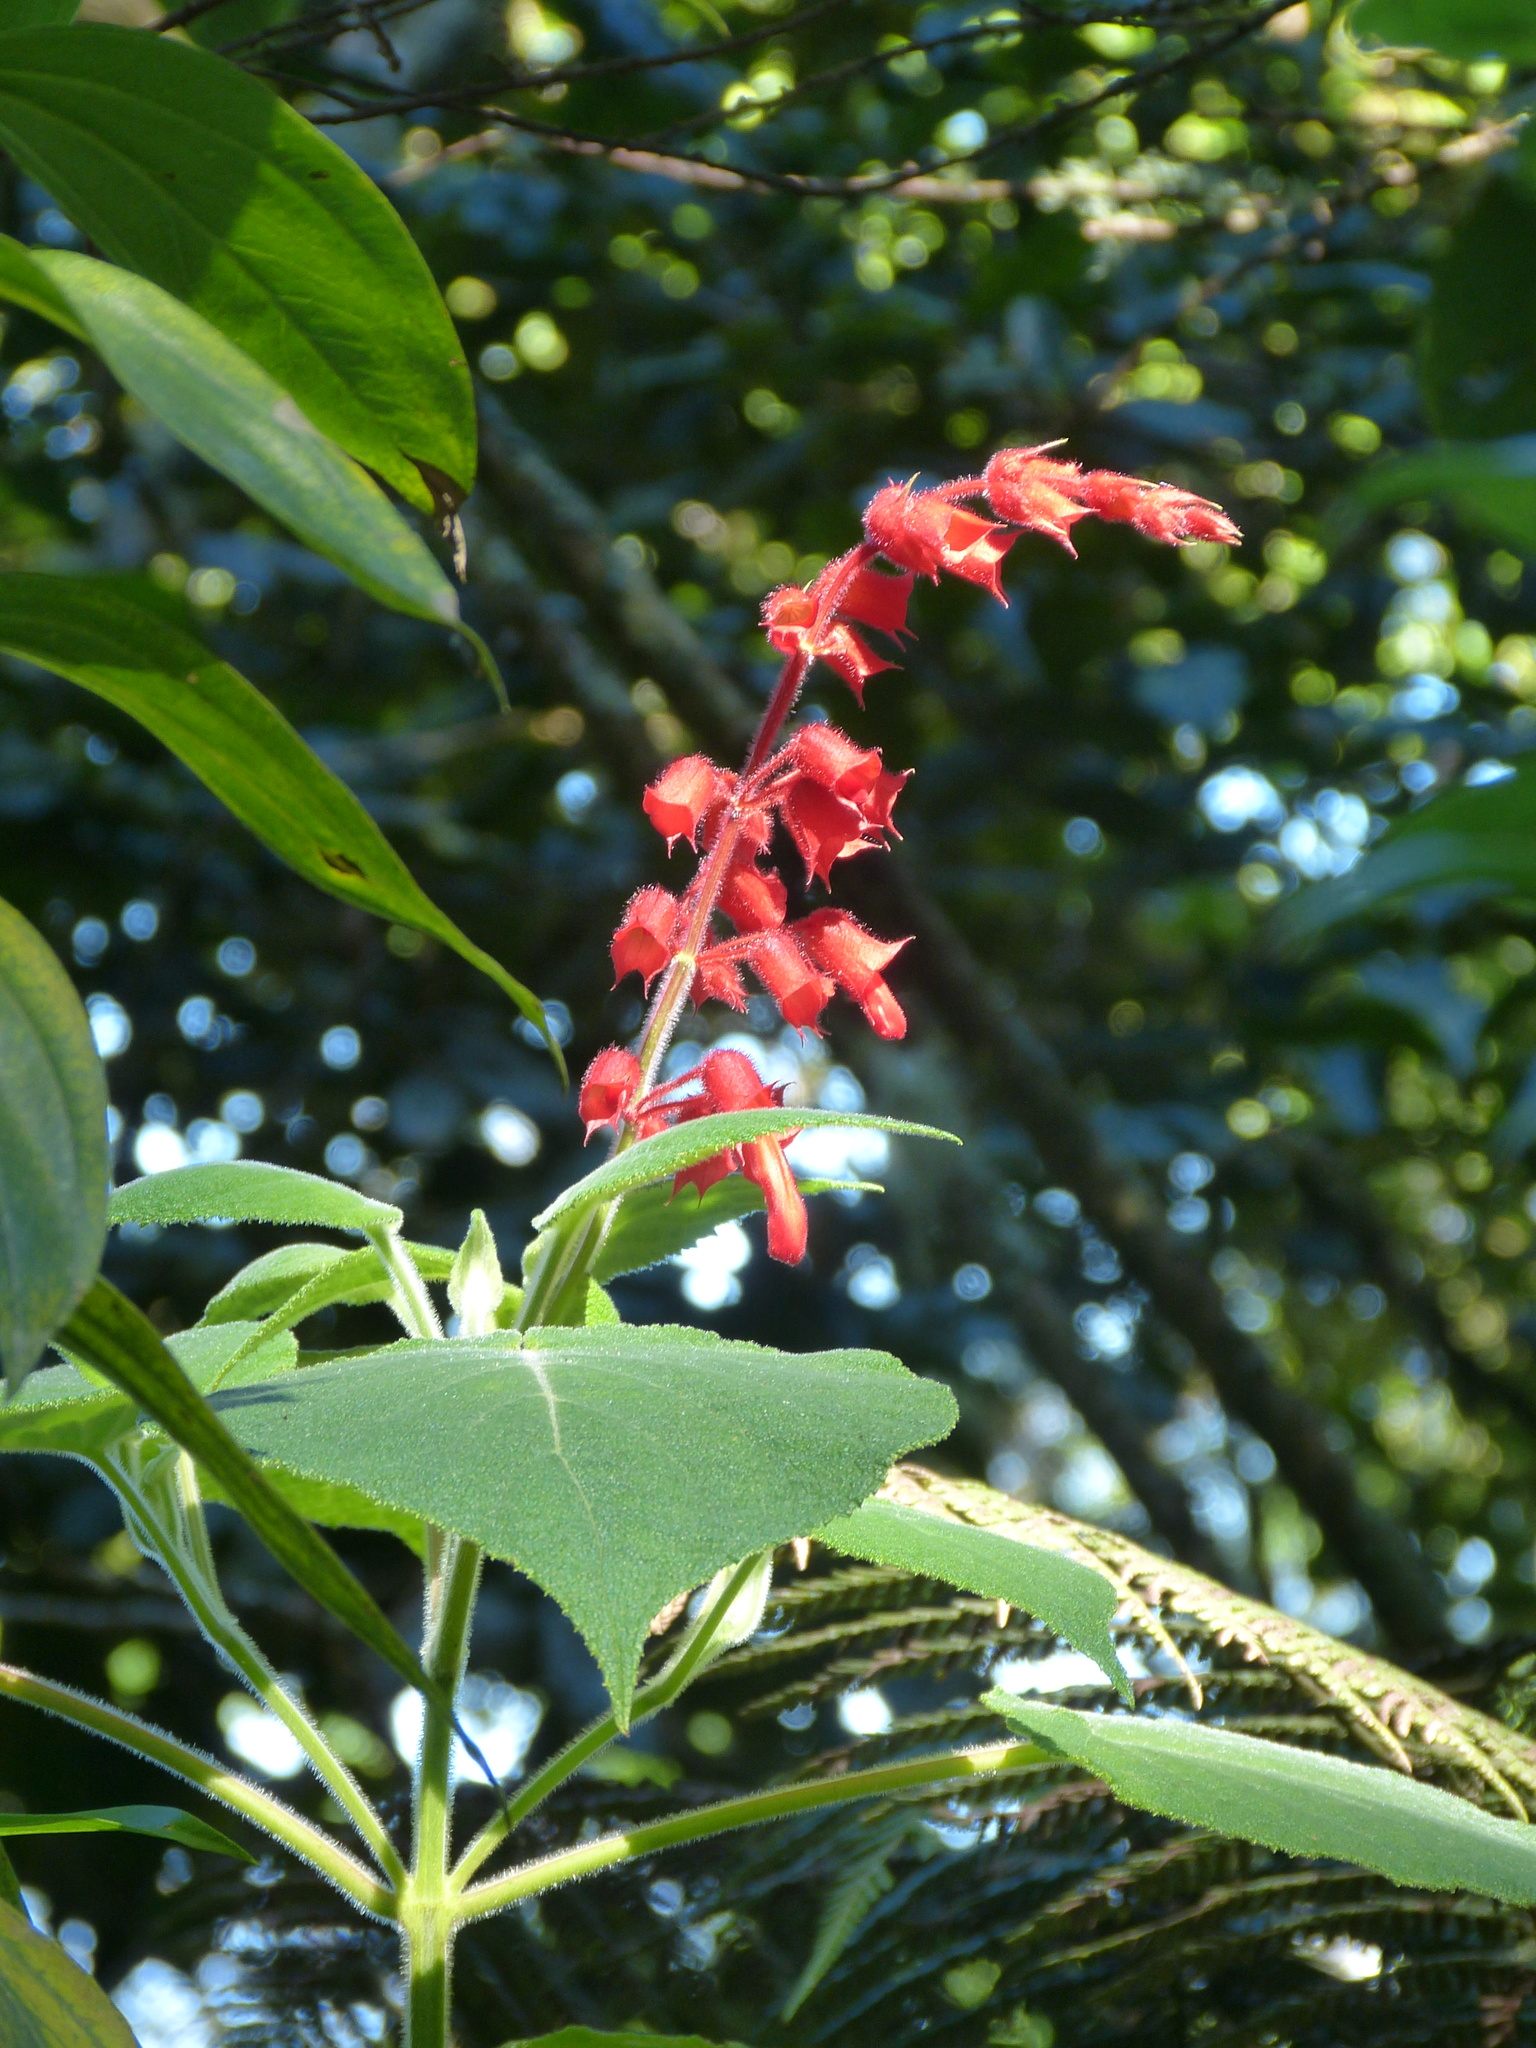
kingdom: Plantae
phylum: Tracheophyta
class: Magnoliopsida
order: Lamiales
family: Lamiaceae
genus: Salvia
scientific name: Salvia libanensis
